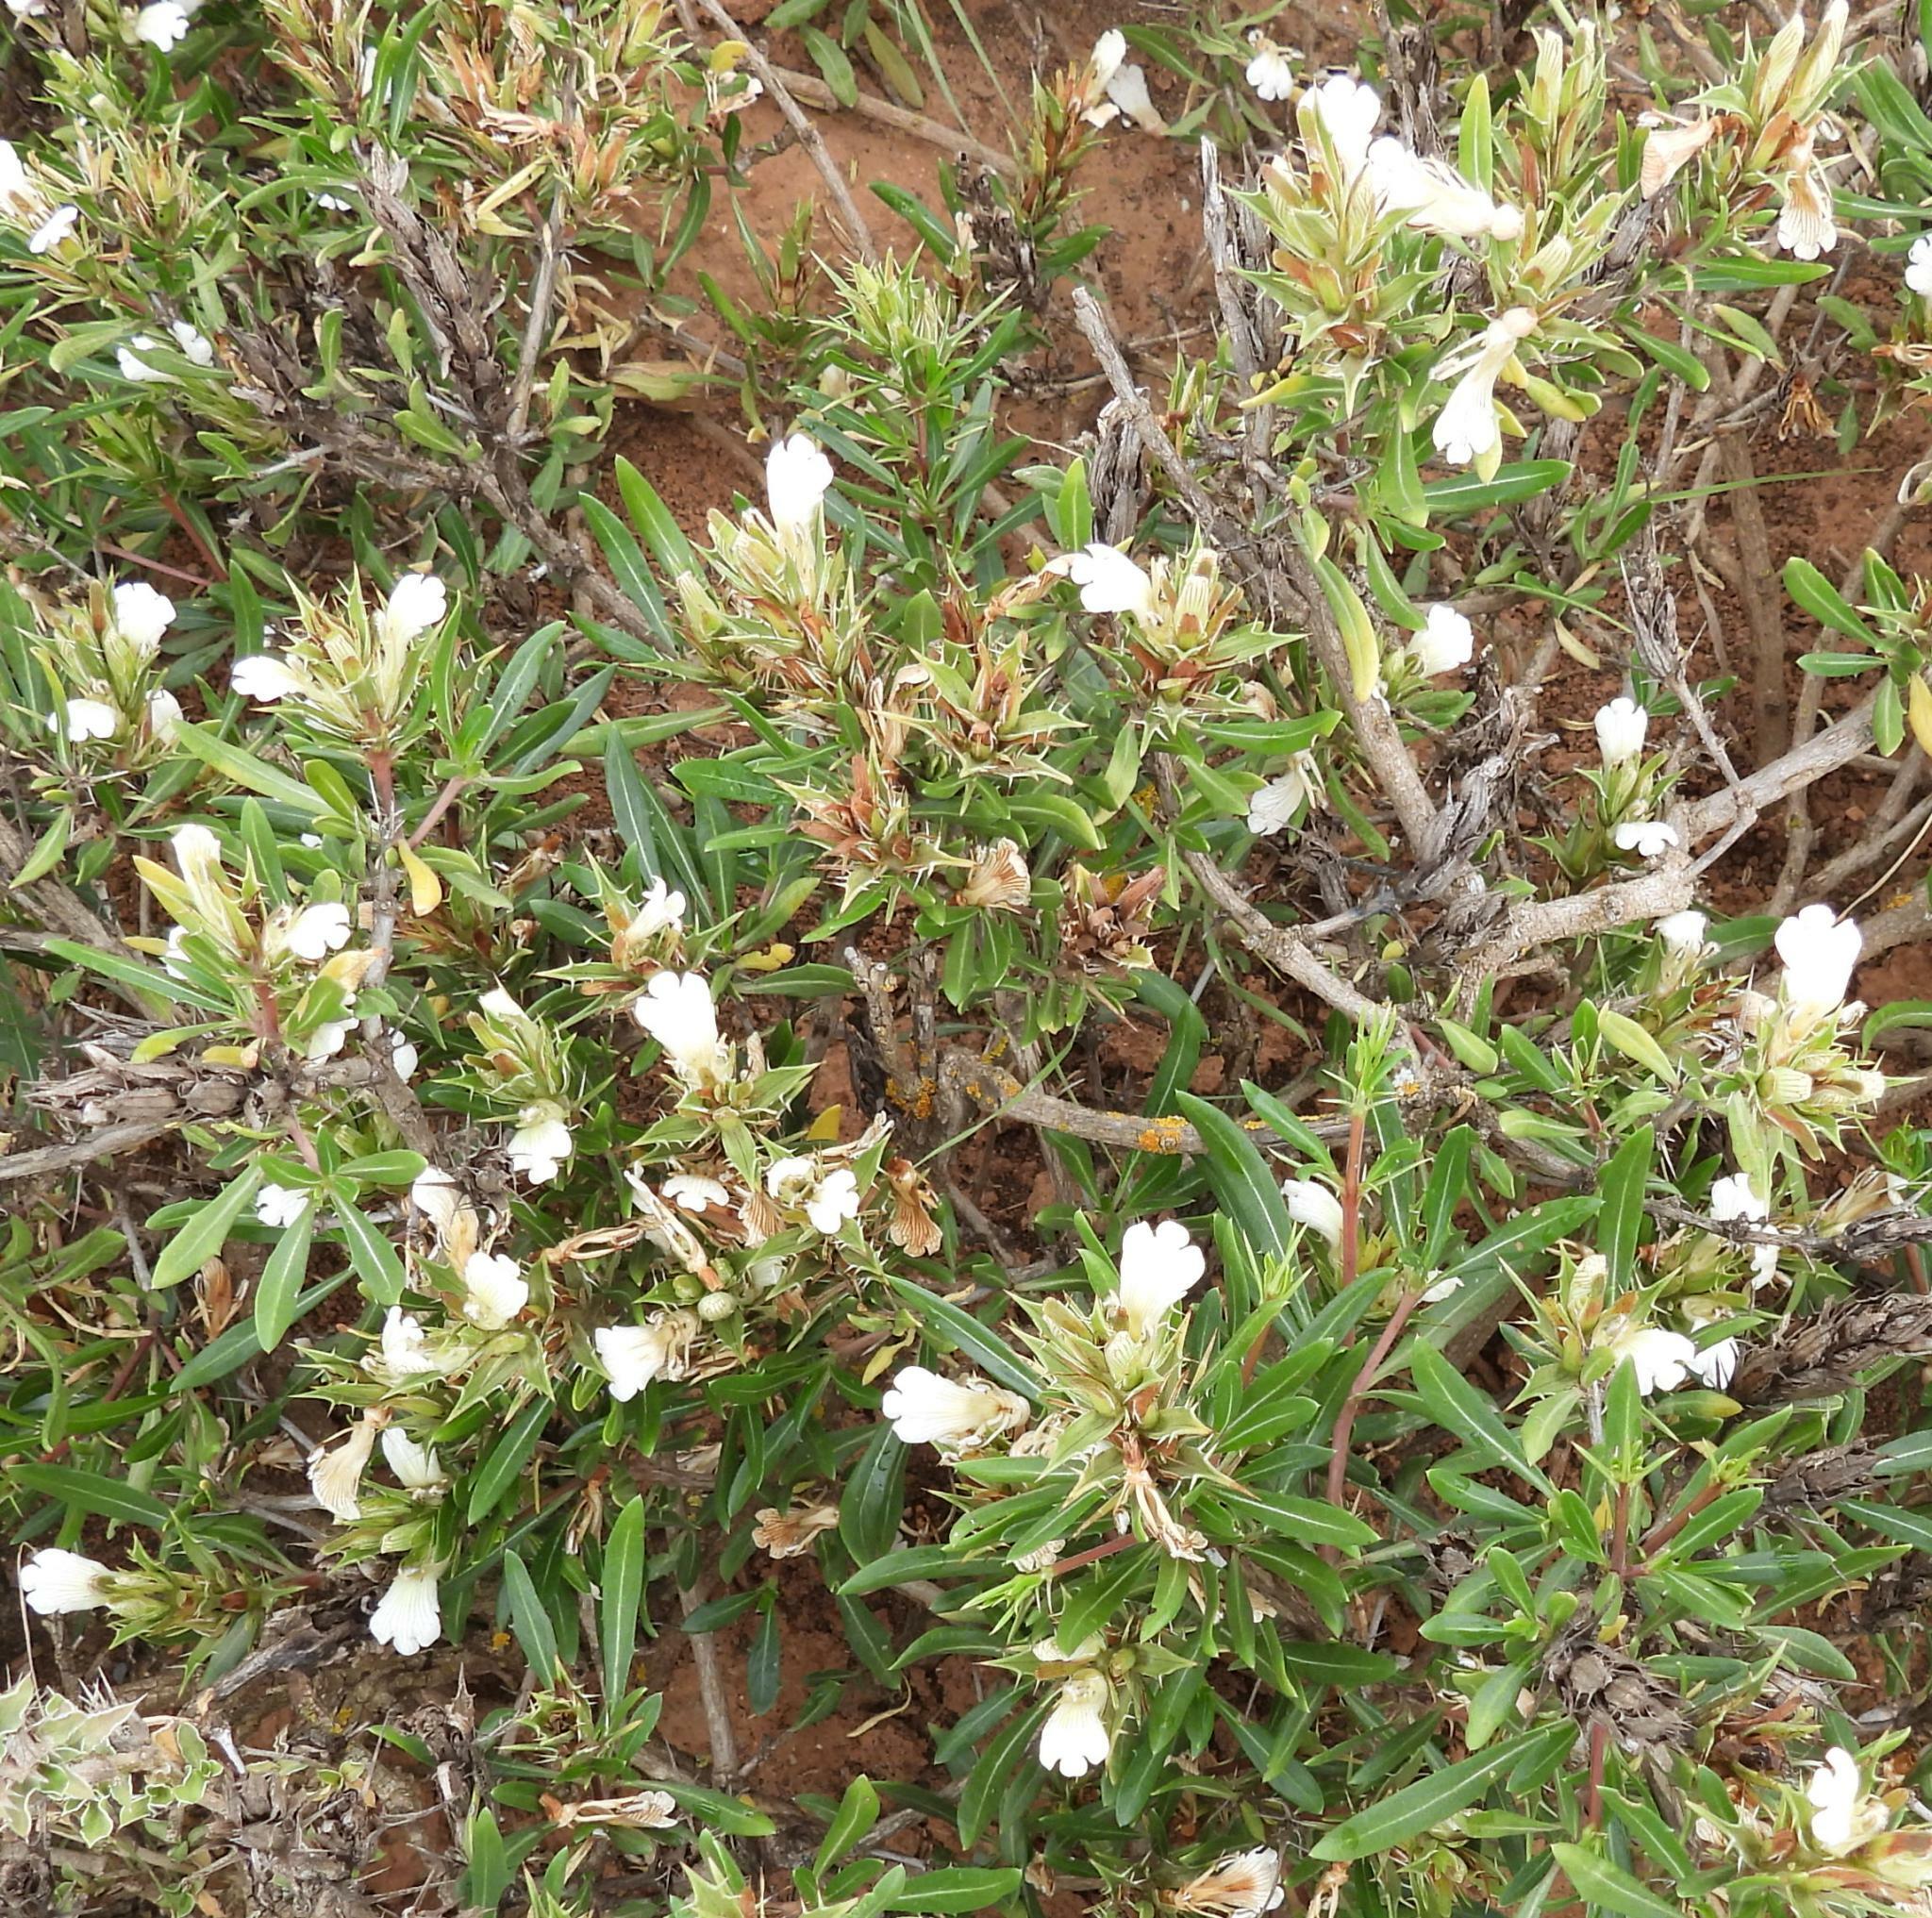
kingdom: Plantae
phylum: Tracheophyta
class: Magnoliopsida
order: Lamiales
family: Acanthaceae
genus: Blepharis
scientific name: Blepharis capensis
